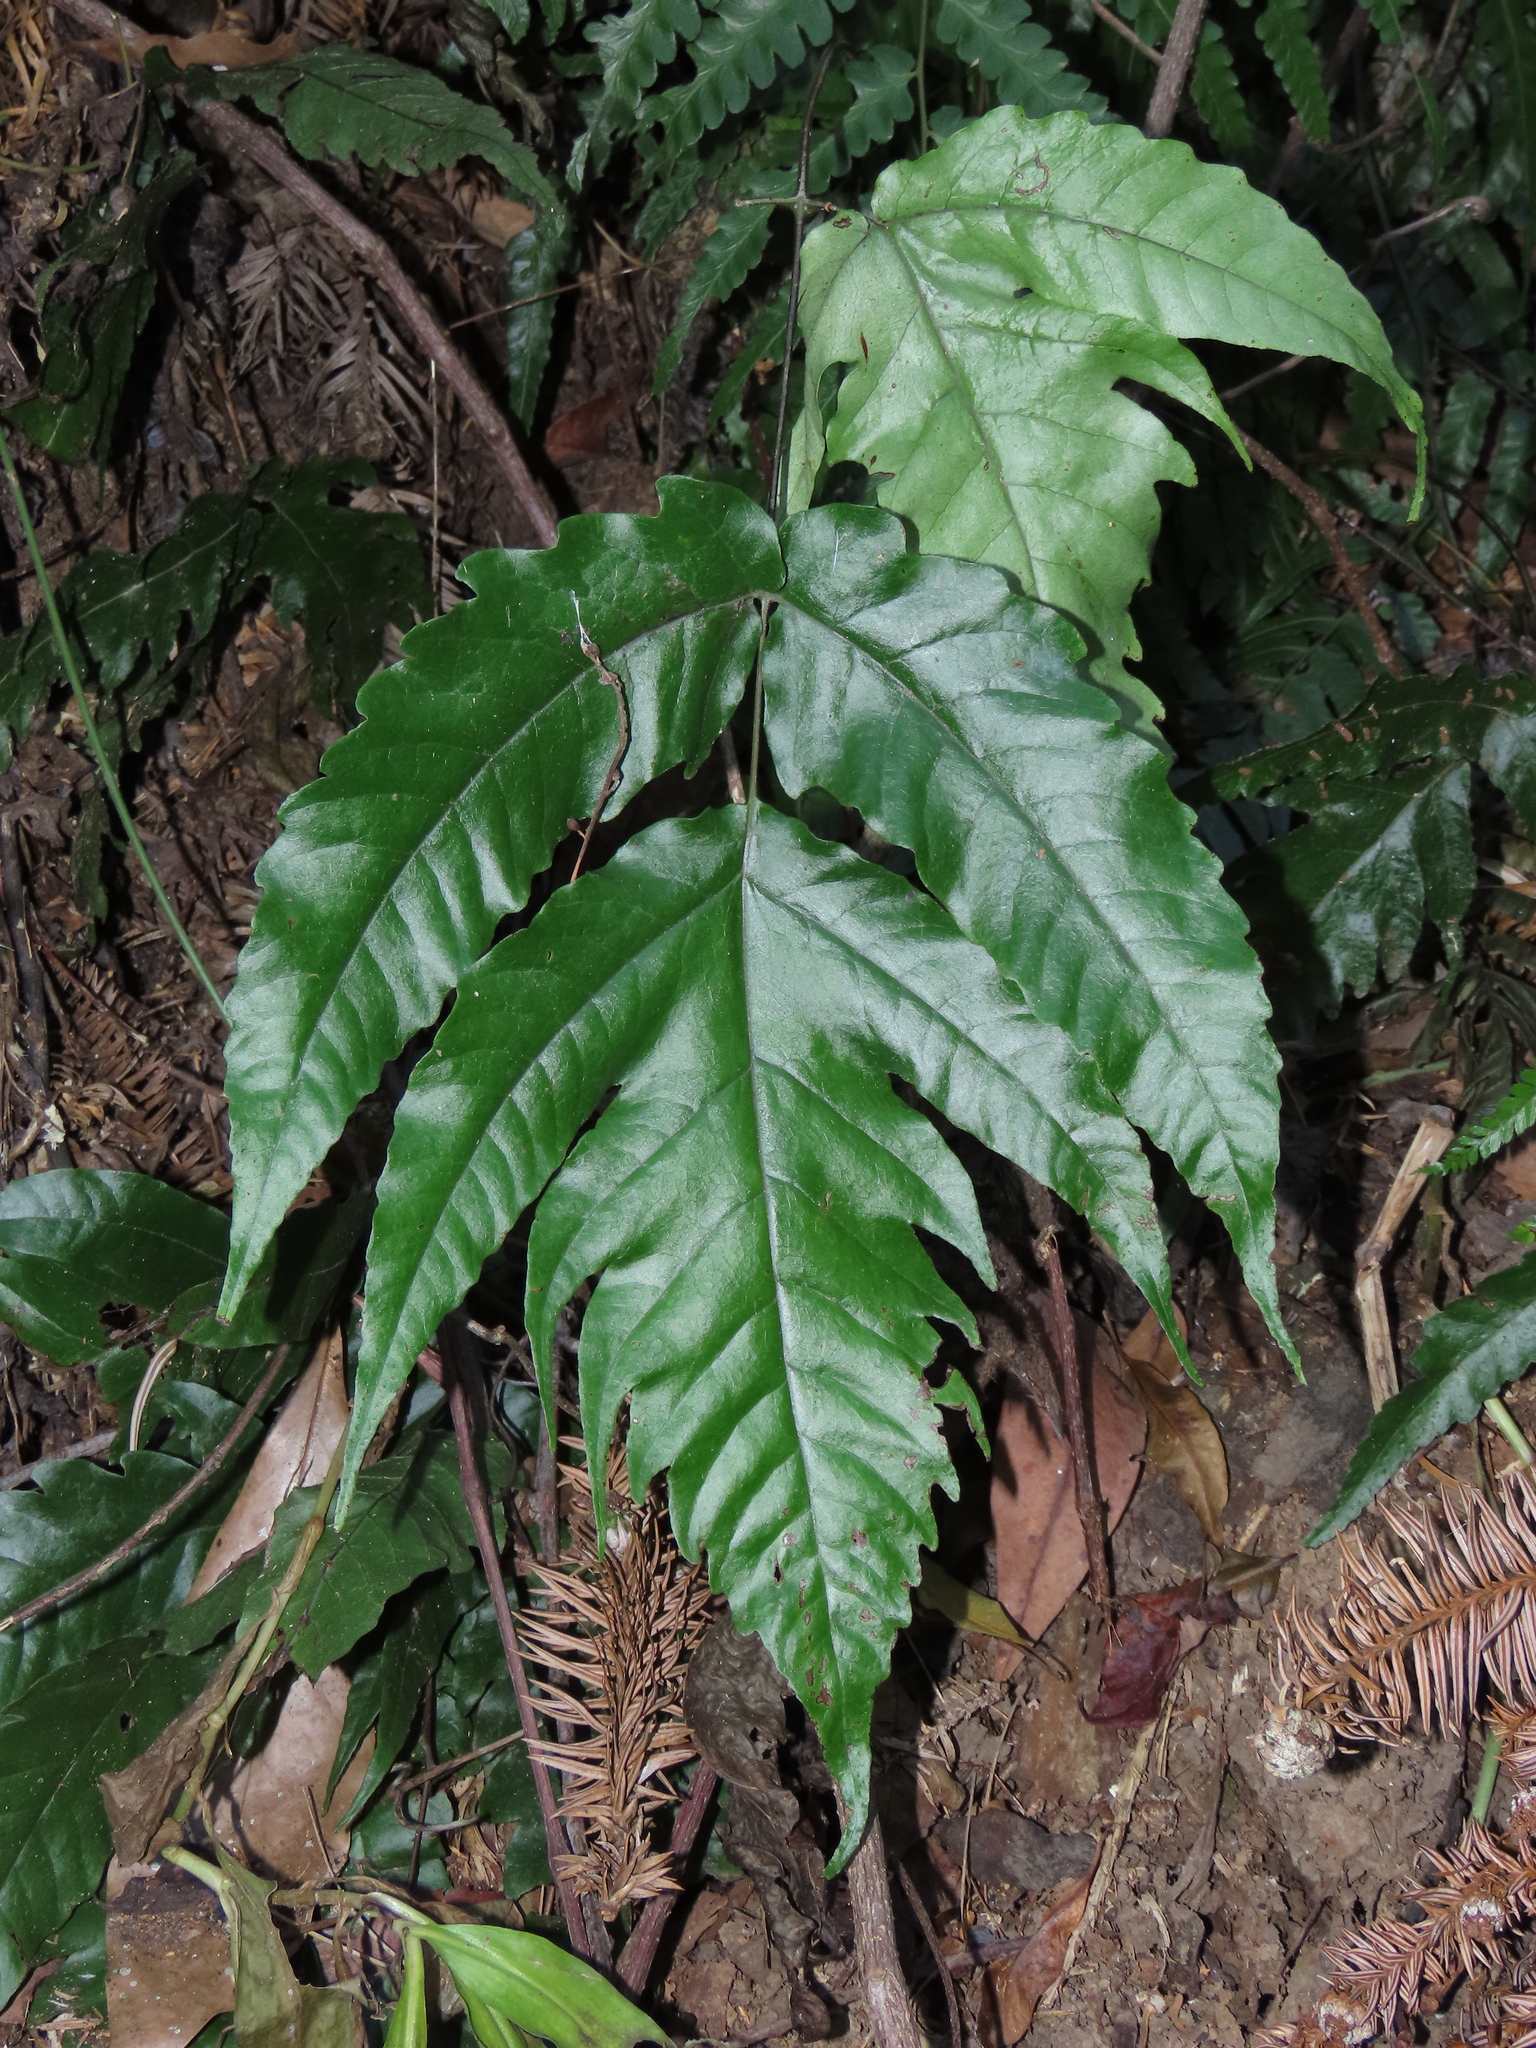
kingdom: Plantae
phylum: Tracheophyta
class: Polypodiopsida
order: Polypodiales
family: Tectariaceae
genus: Tectaria
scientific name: Tectaria subtriphylla
